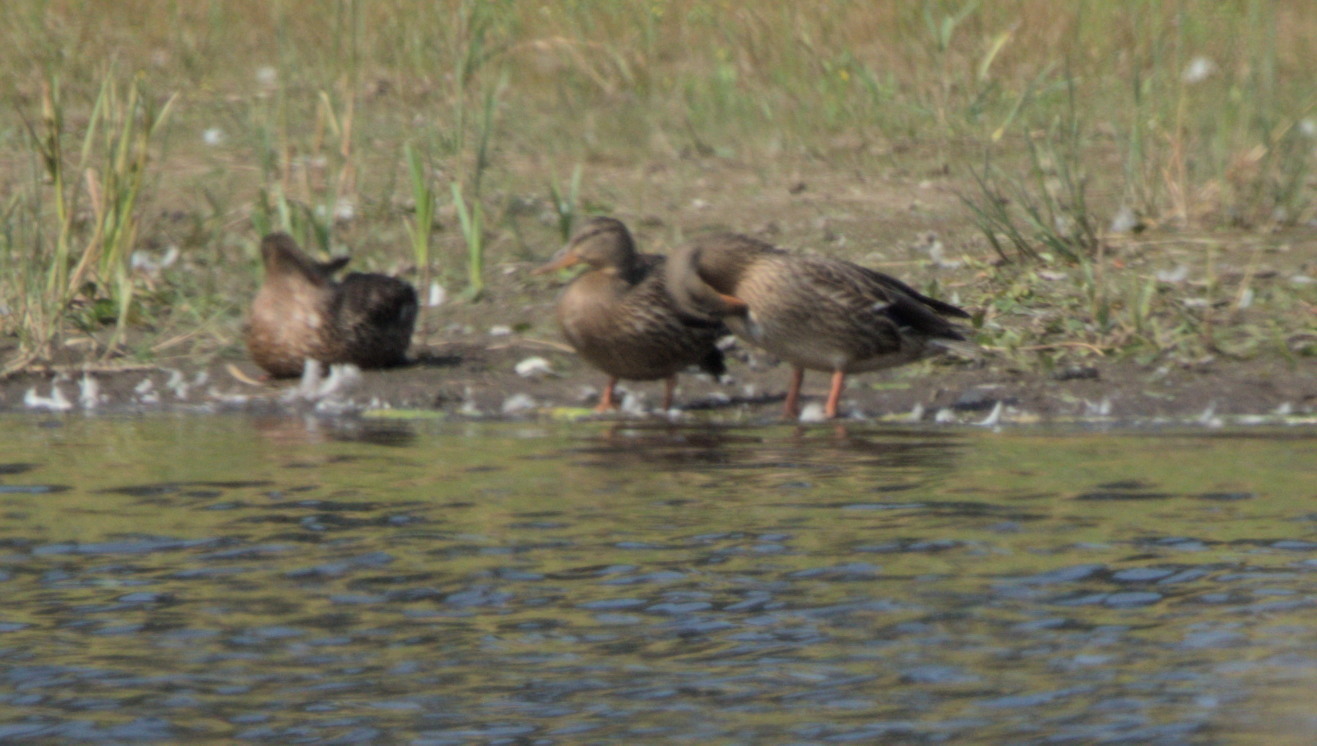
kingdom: Animalia
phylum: Chordata
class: Aves
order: Anseriformes
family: Anatidae
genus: Anas
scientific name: Anas platyrhynchos
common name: Mallard
